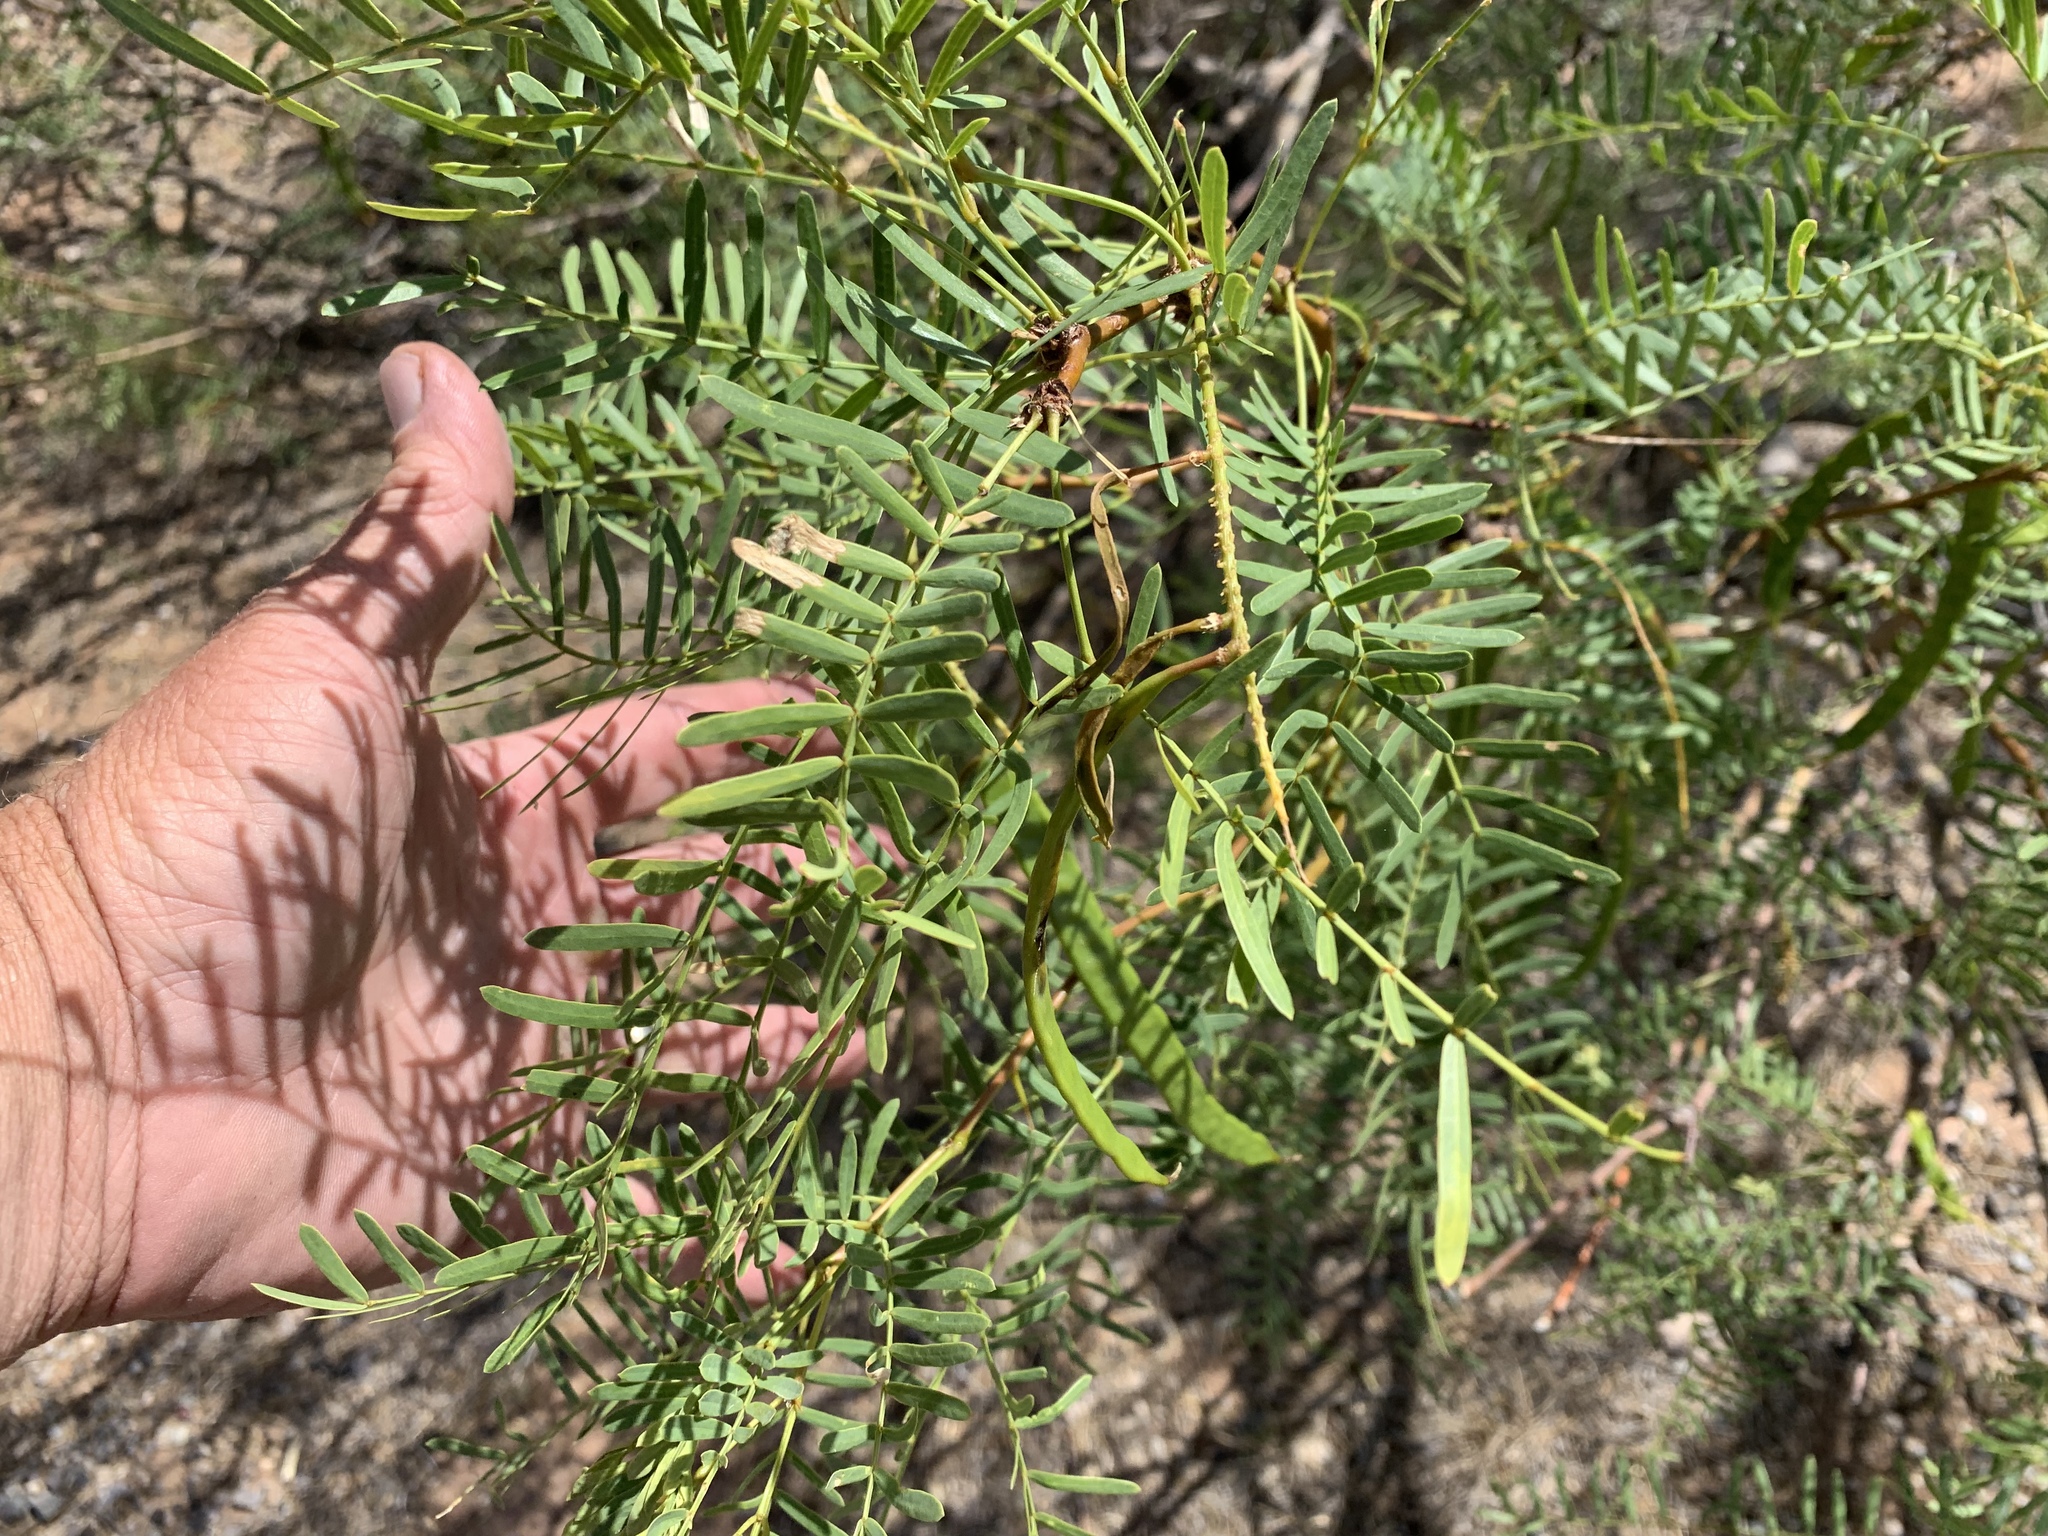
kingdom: Plantae
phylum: Tracheophyta
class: Magnoliopsida
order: Fabales
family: Fabaceae
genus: Prosopis
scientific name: Prosopis glandulosa
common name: Honey mesquite
